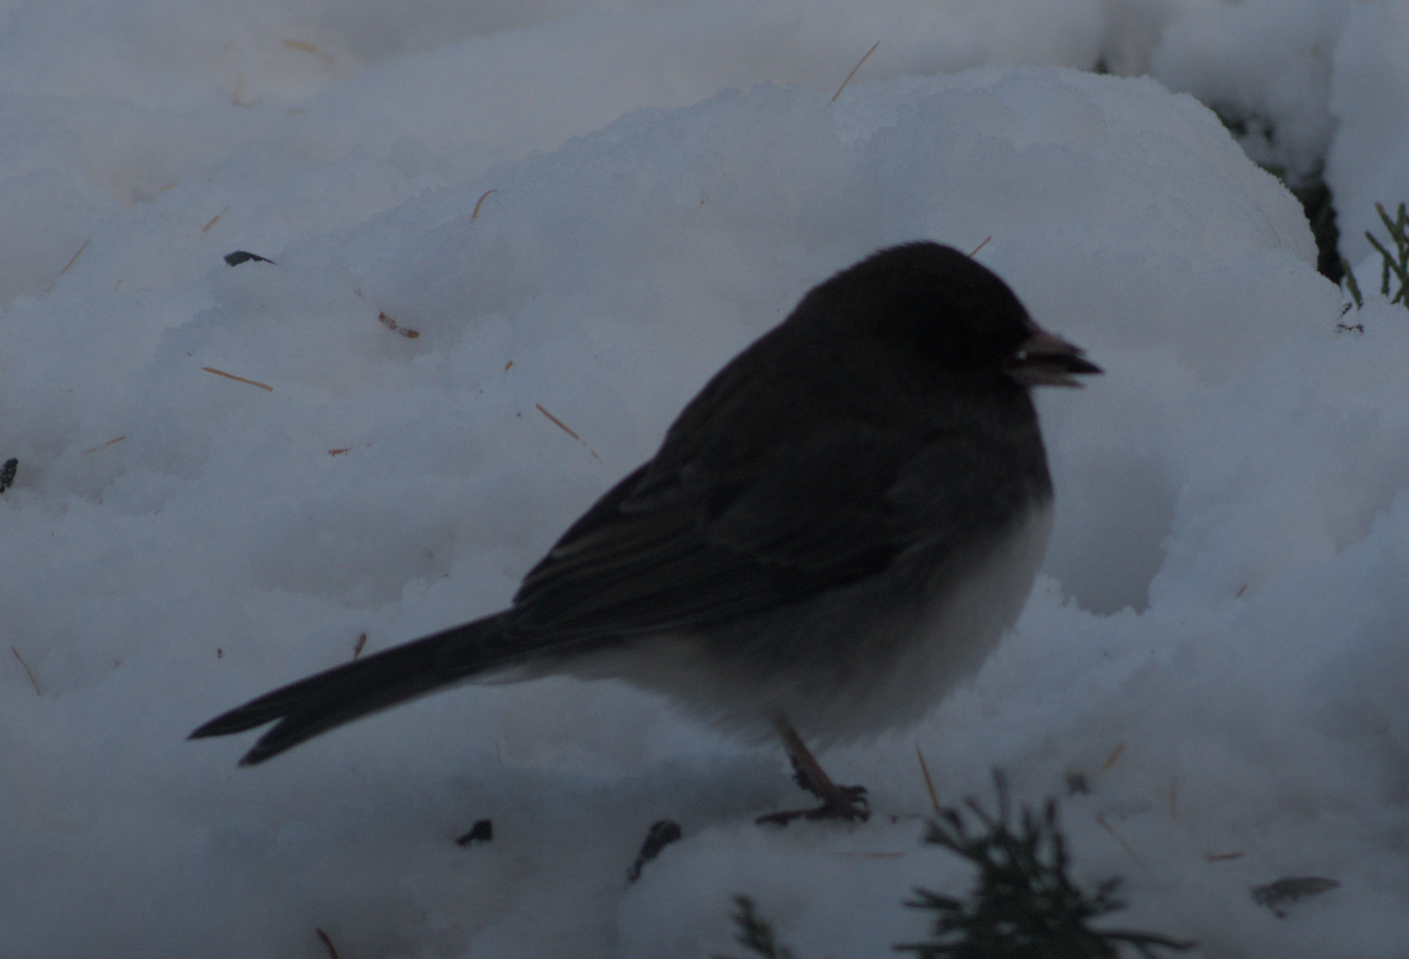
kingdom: Animalia
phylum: Chordata
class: Aves
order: Passeriformes
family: Passerellidae
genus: Junco
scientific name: Junco hyemalis
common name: Dark-eyed junco
